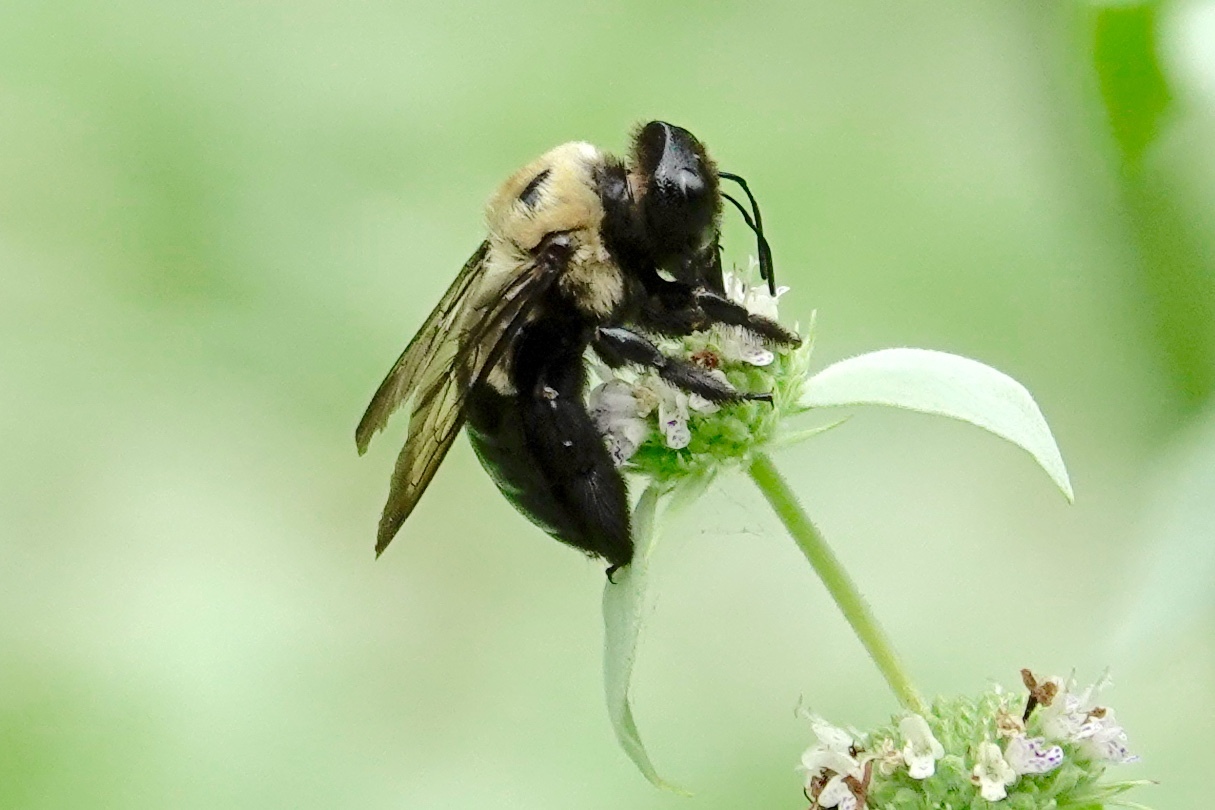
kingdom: Animalia
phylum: Arthropoda
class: Insecta
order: Hymenoptera
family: Apidae
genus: Xylocopa
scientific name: Xylocopa virginica
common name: Carpenter bee
